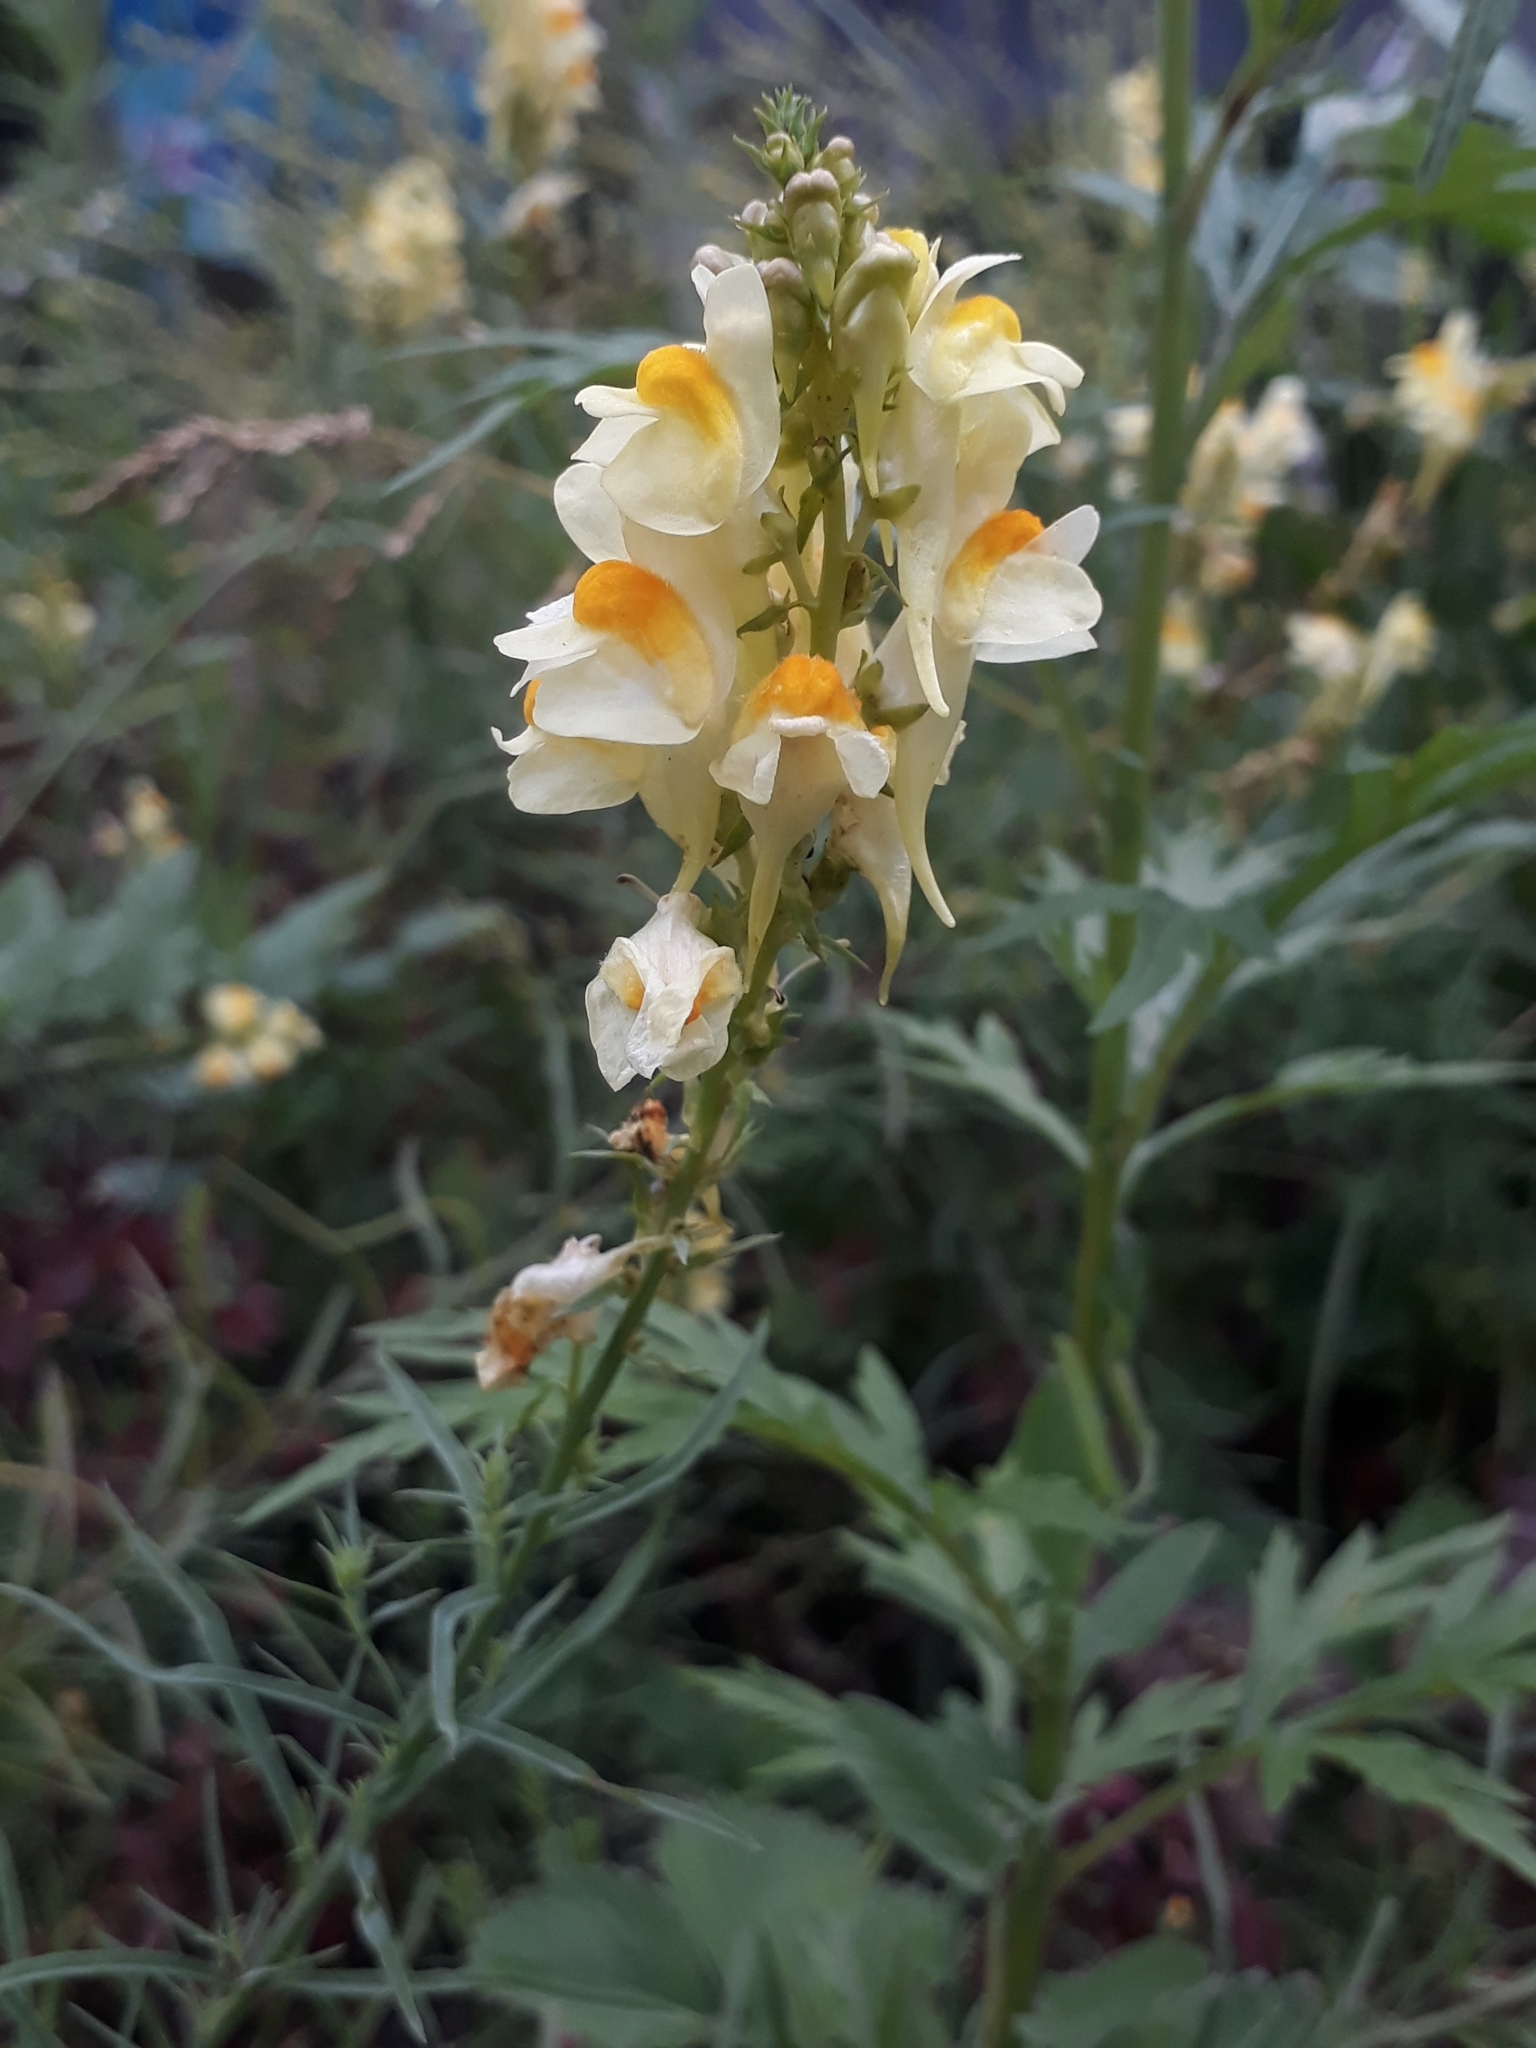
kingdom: Plantae
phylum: Tracheophyta
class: Magnoliopsida
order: Lamiales
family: Plantaginaceae
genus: Linaria
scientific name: Linaria vulgaris
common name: Butter and eggs
